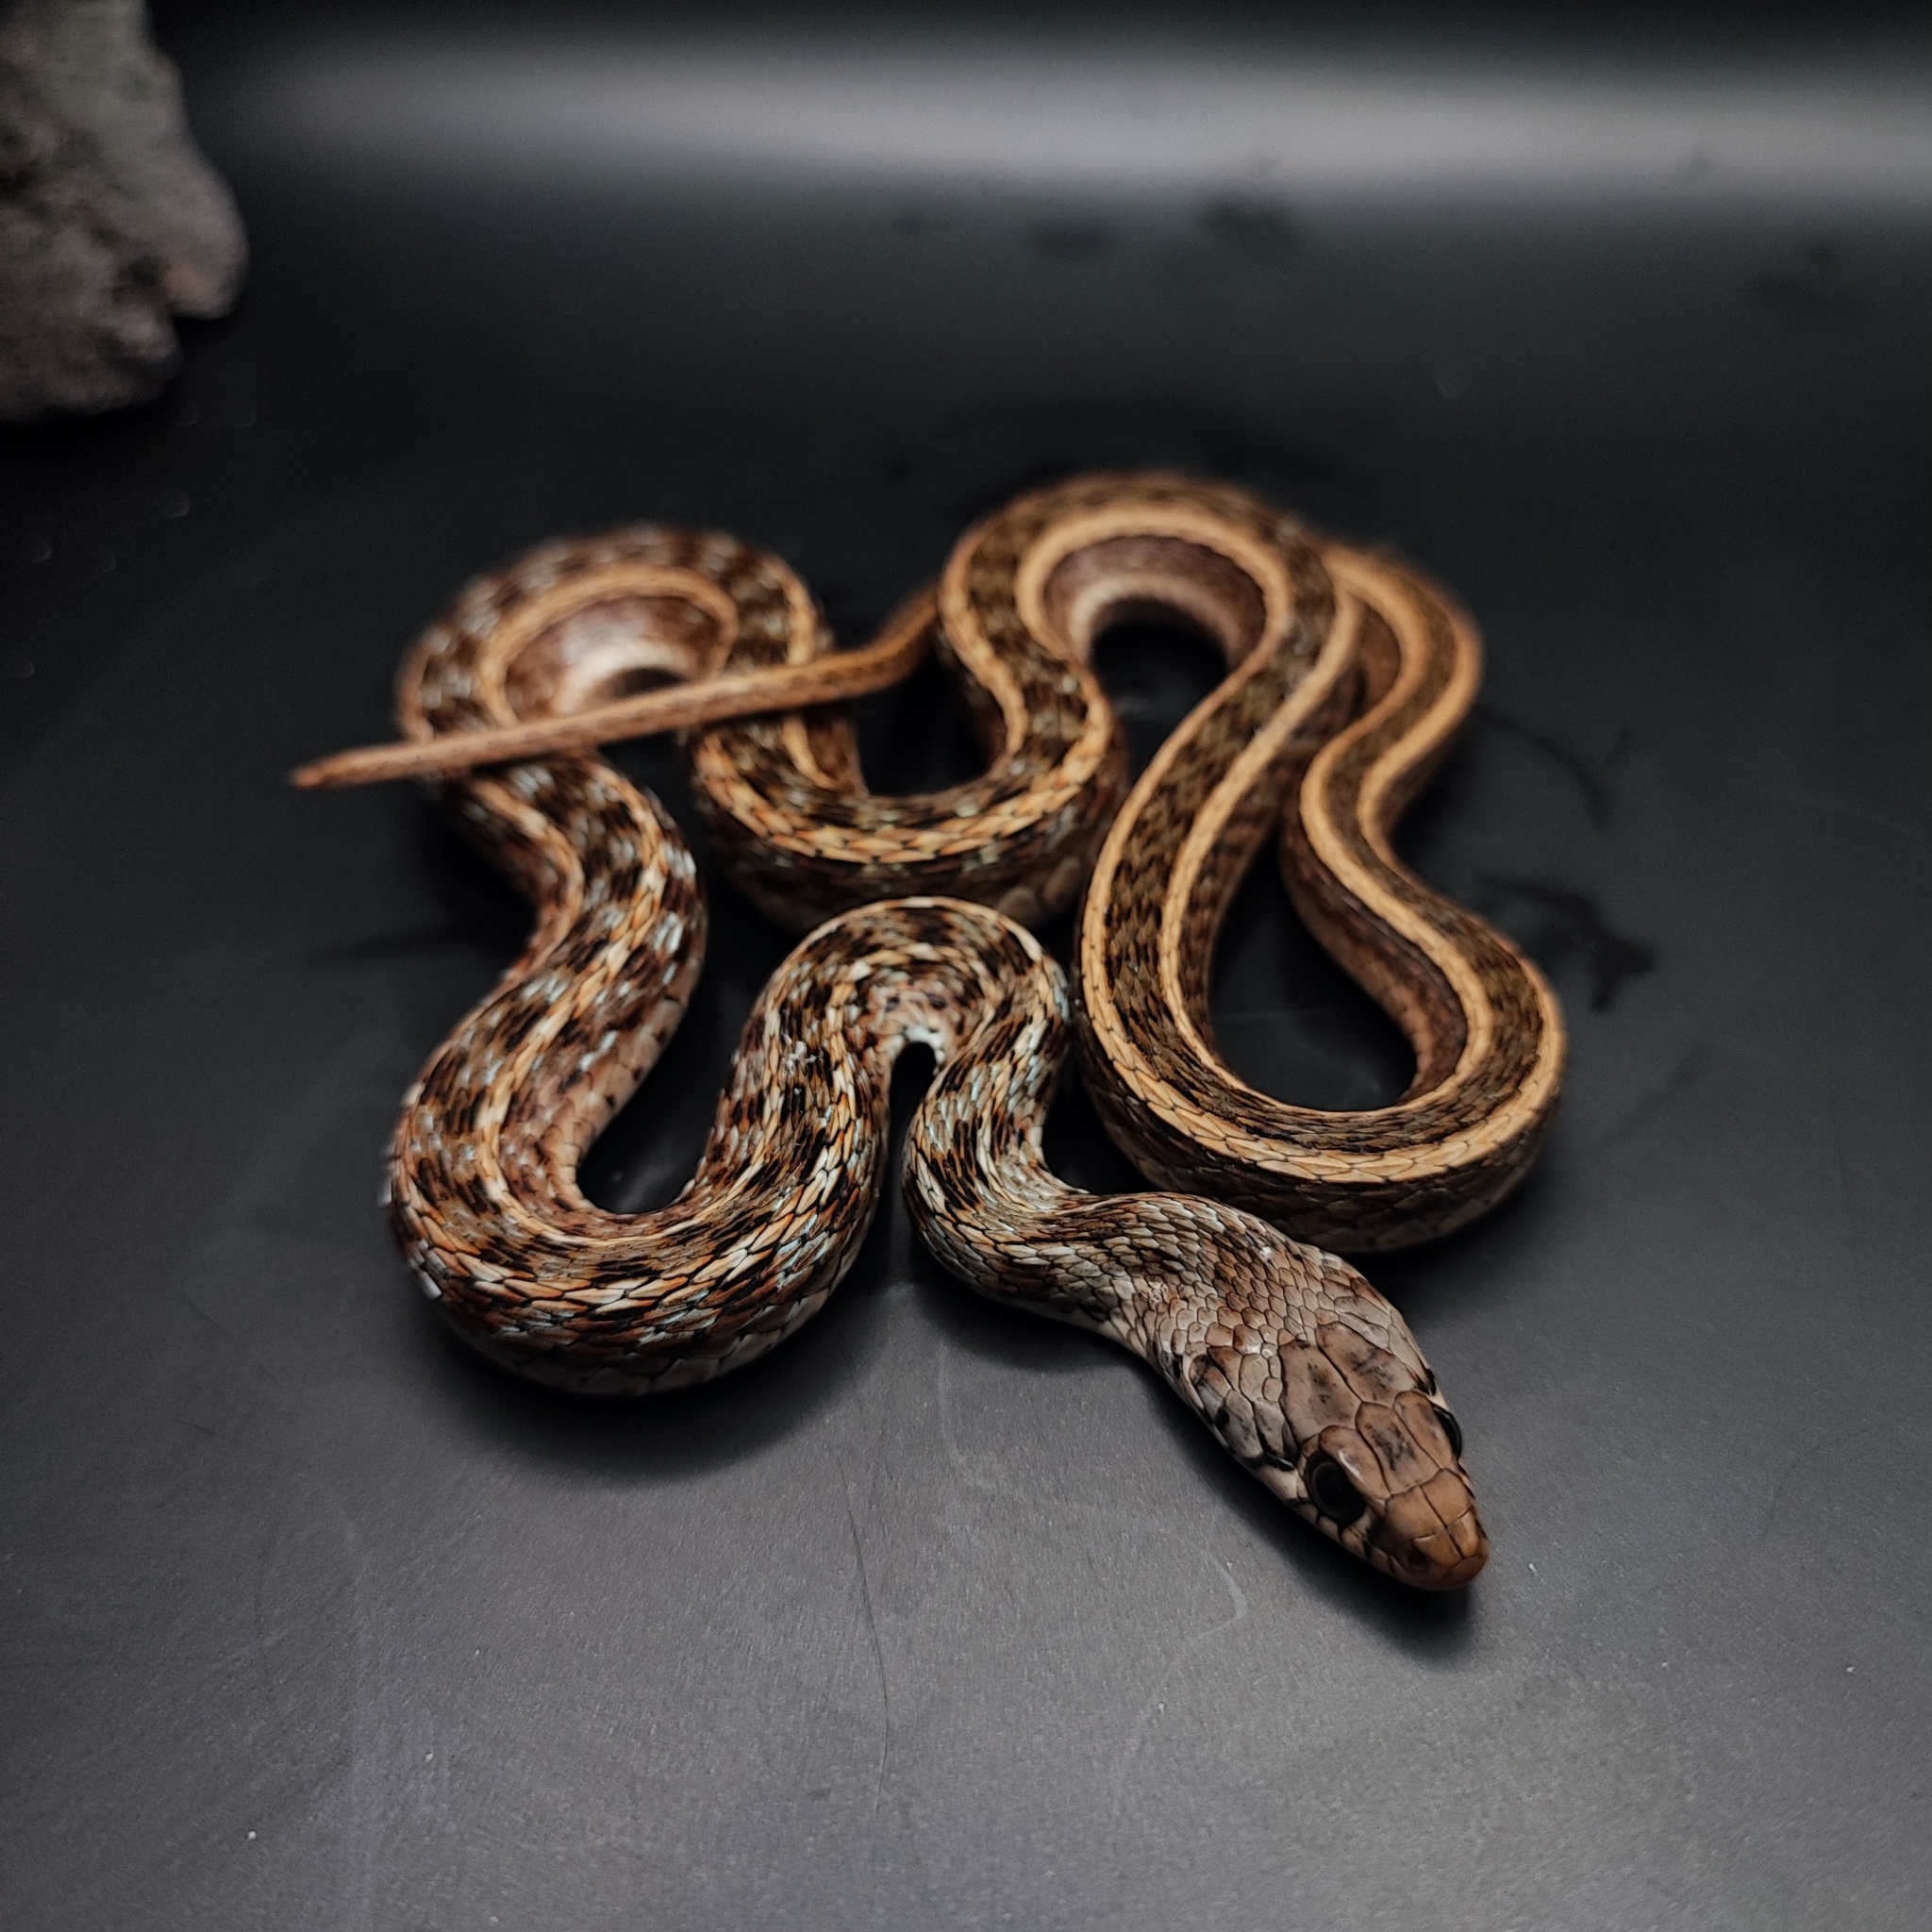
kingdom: Animalia
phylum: Chordata
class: Squamata
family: Colubridae
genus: Amphiesma
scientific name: Amphiesma stolatum
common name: Buff striped keelback
